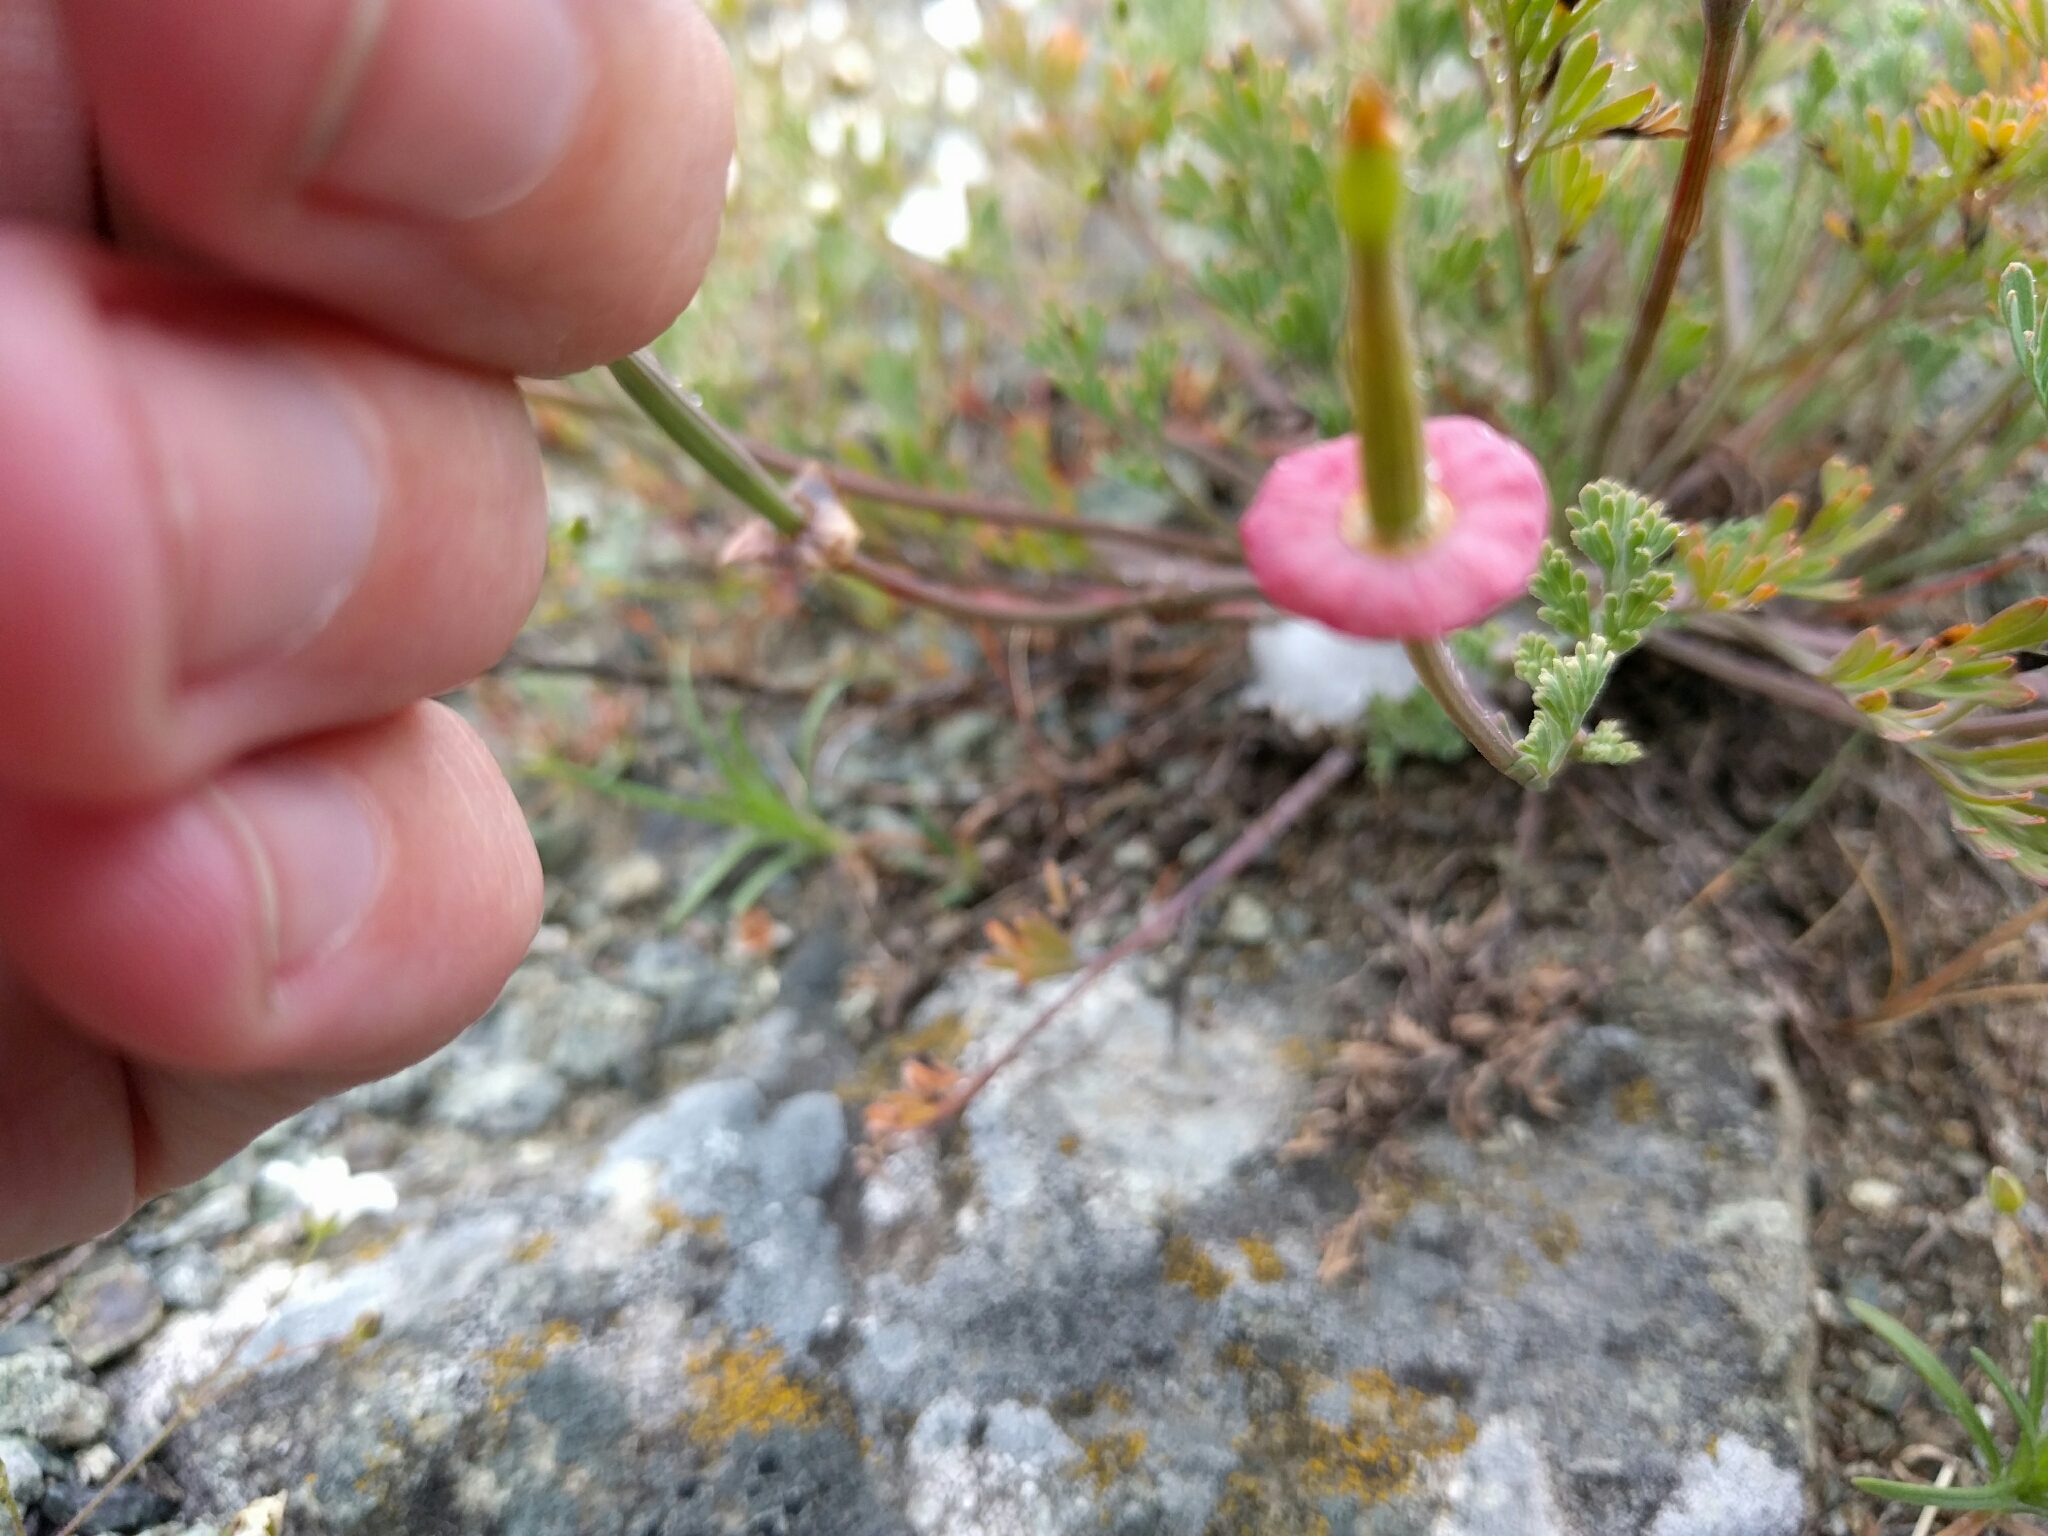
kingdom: Plantae
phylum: Tracheophyta
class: Magnoliopsida
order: Ranunculales
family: Papaveraceae
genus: Eschscholzia
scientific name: Eschscholzia californica
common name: California poppy
